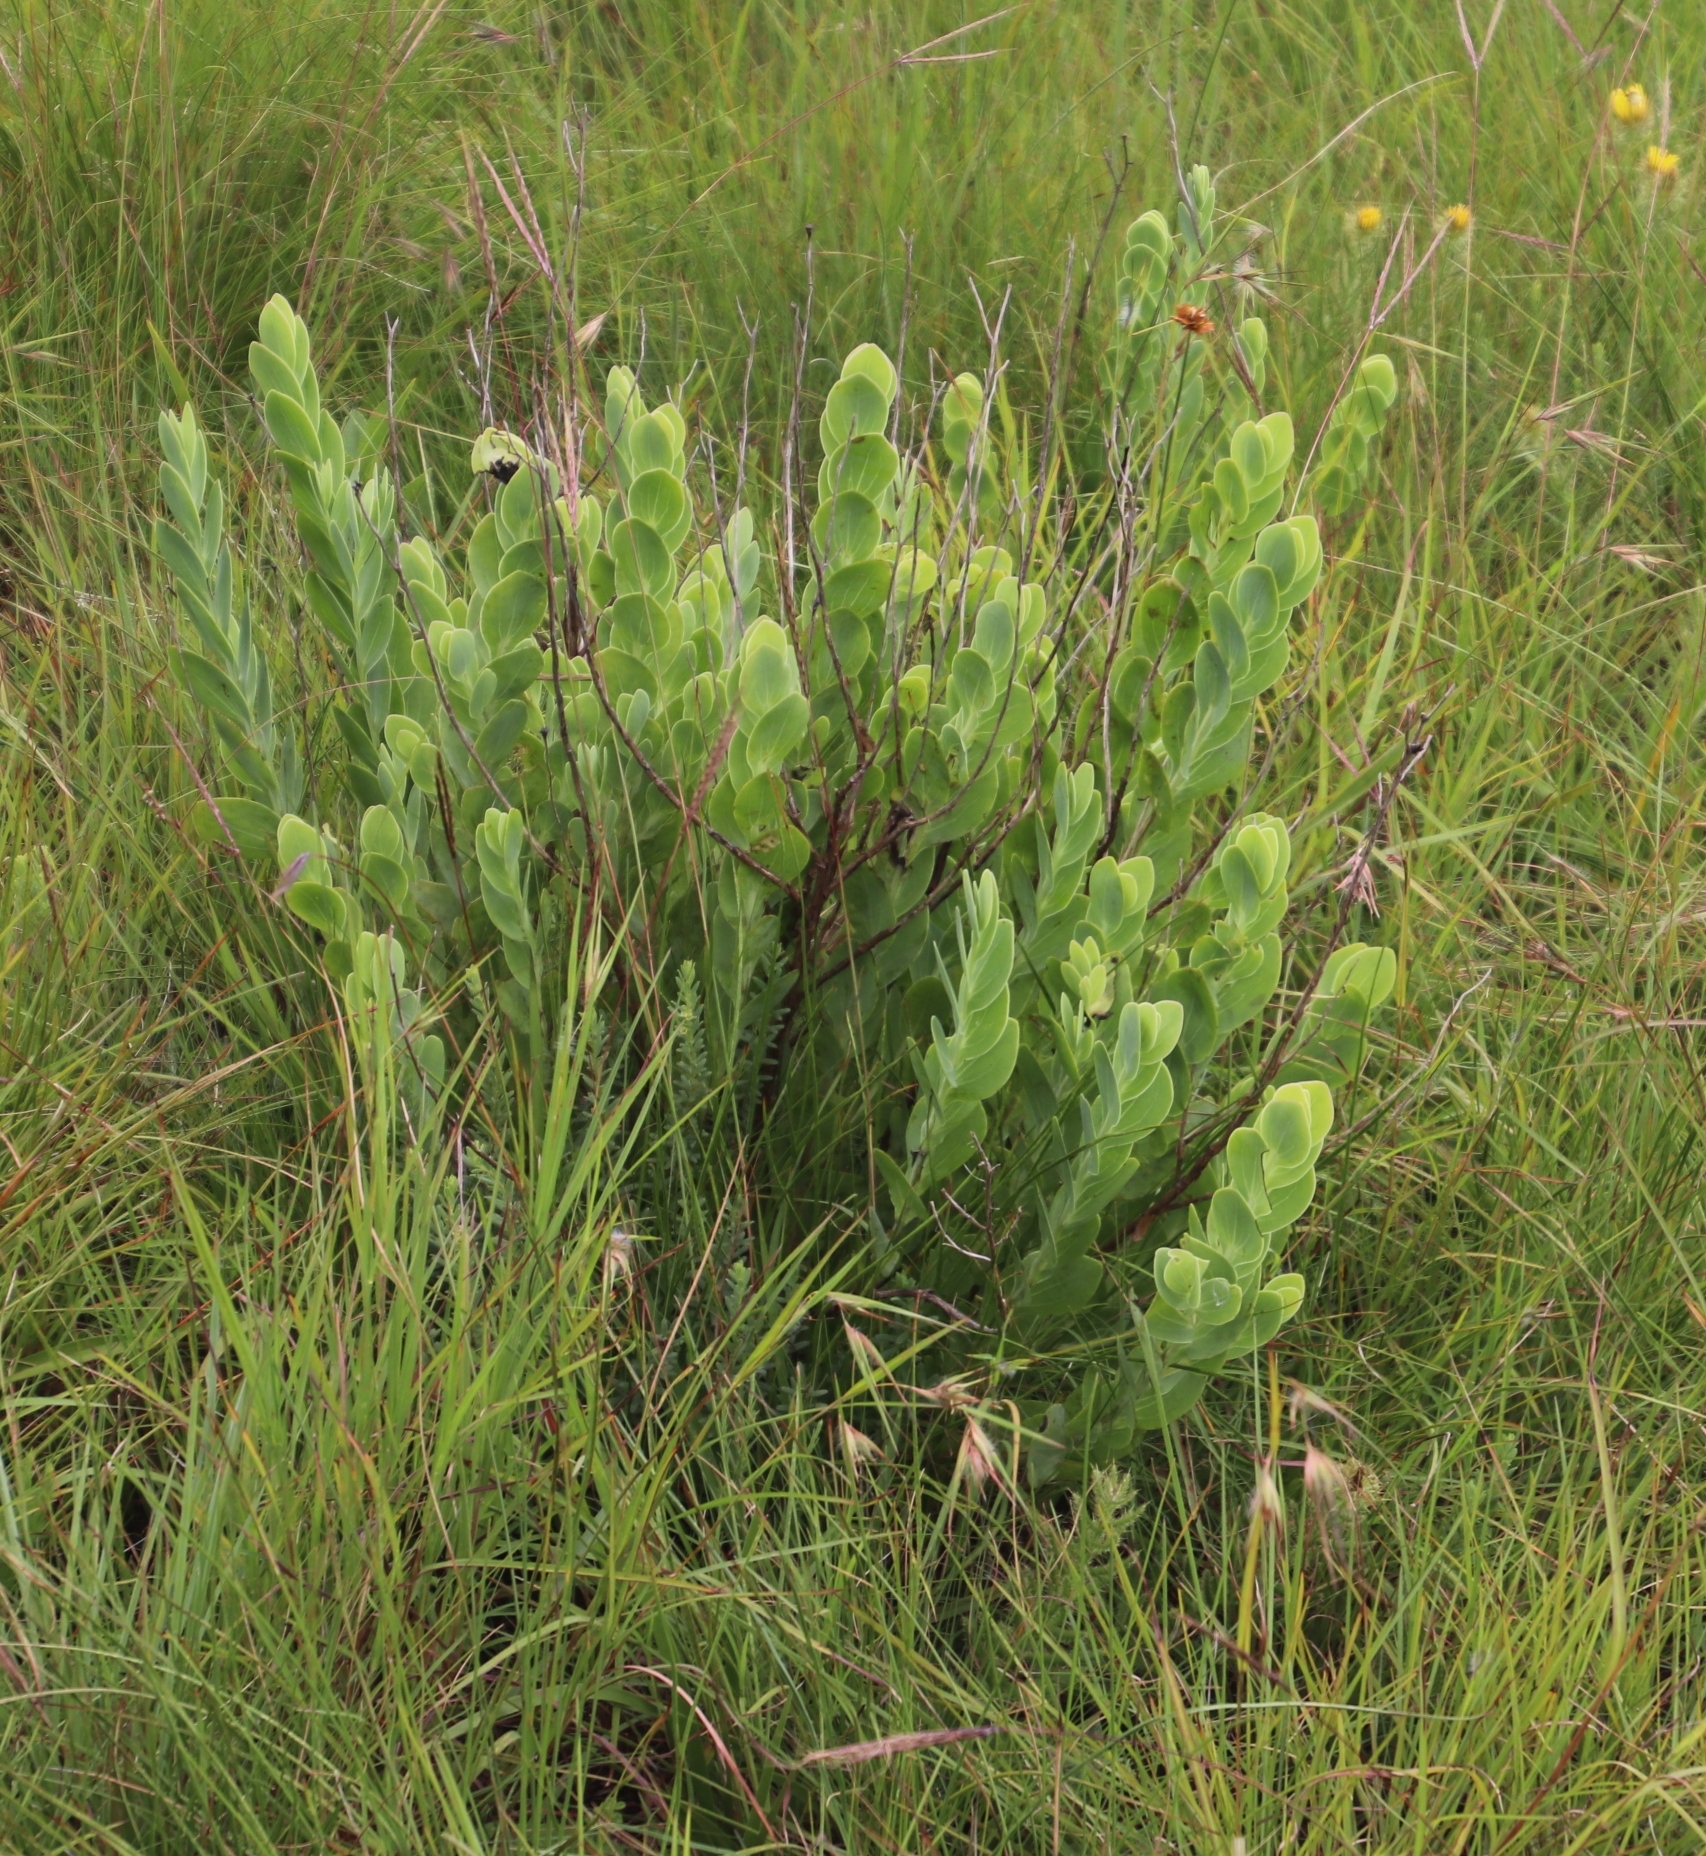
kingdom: Plantae
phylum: Tracheophyta
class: Magnoliopsida
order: Asterales
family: Asteraceae
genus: Lopholaena
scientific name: Lopholaena disticha
